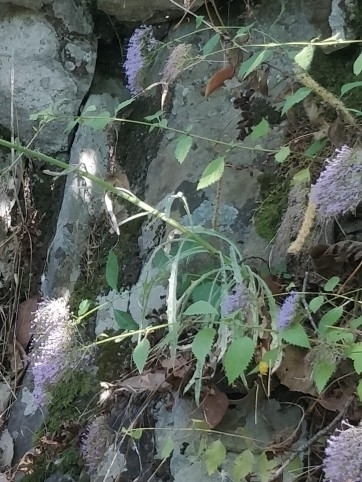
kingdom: Plantae
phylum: Tracheophyta
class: Magnoliopsida
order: Asterales
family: Asteraceae
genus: Andryala
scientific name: Andryala glandulosa
